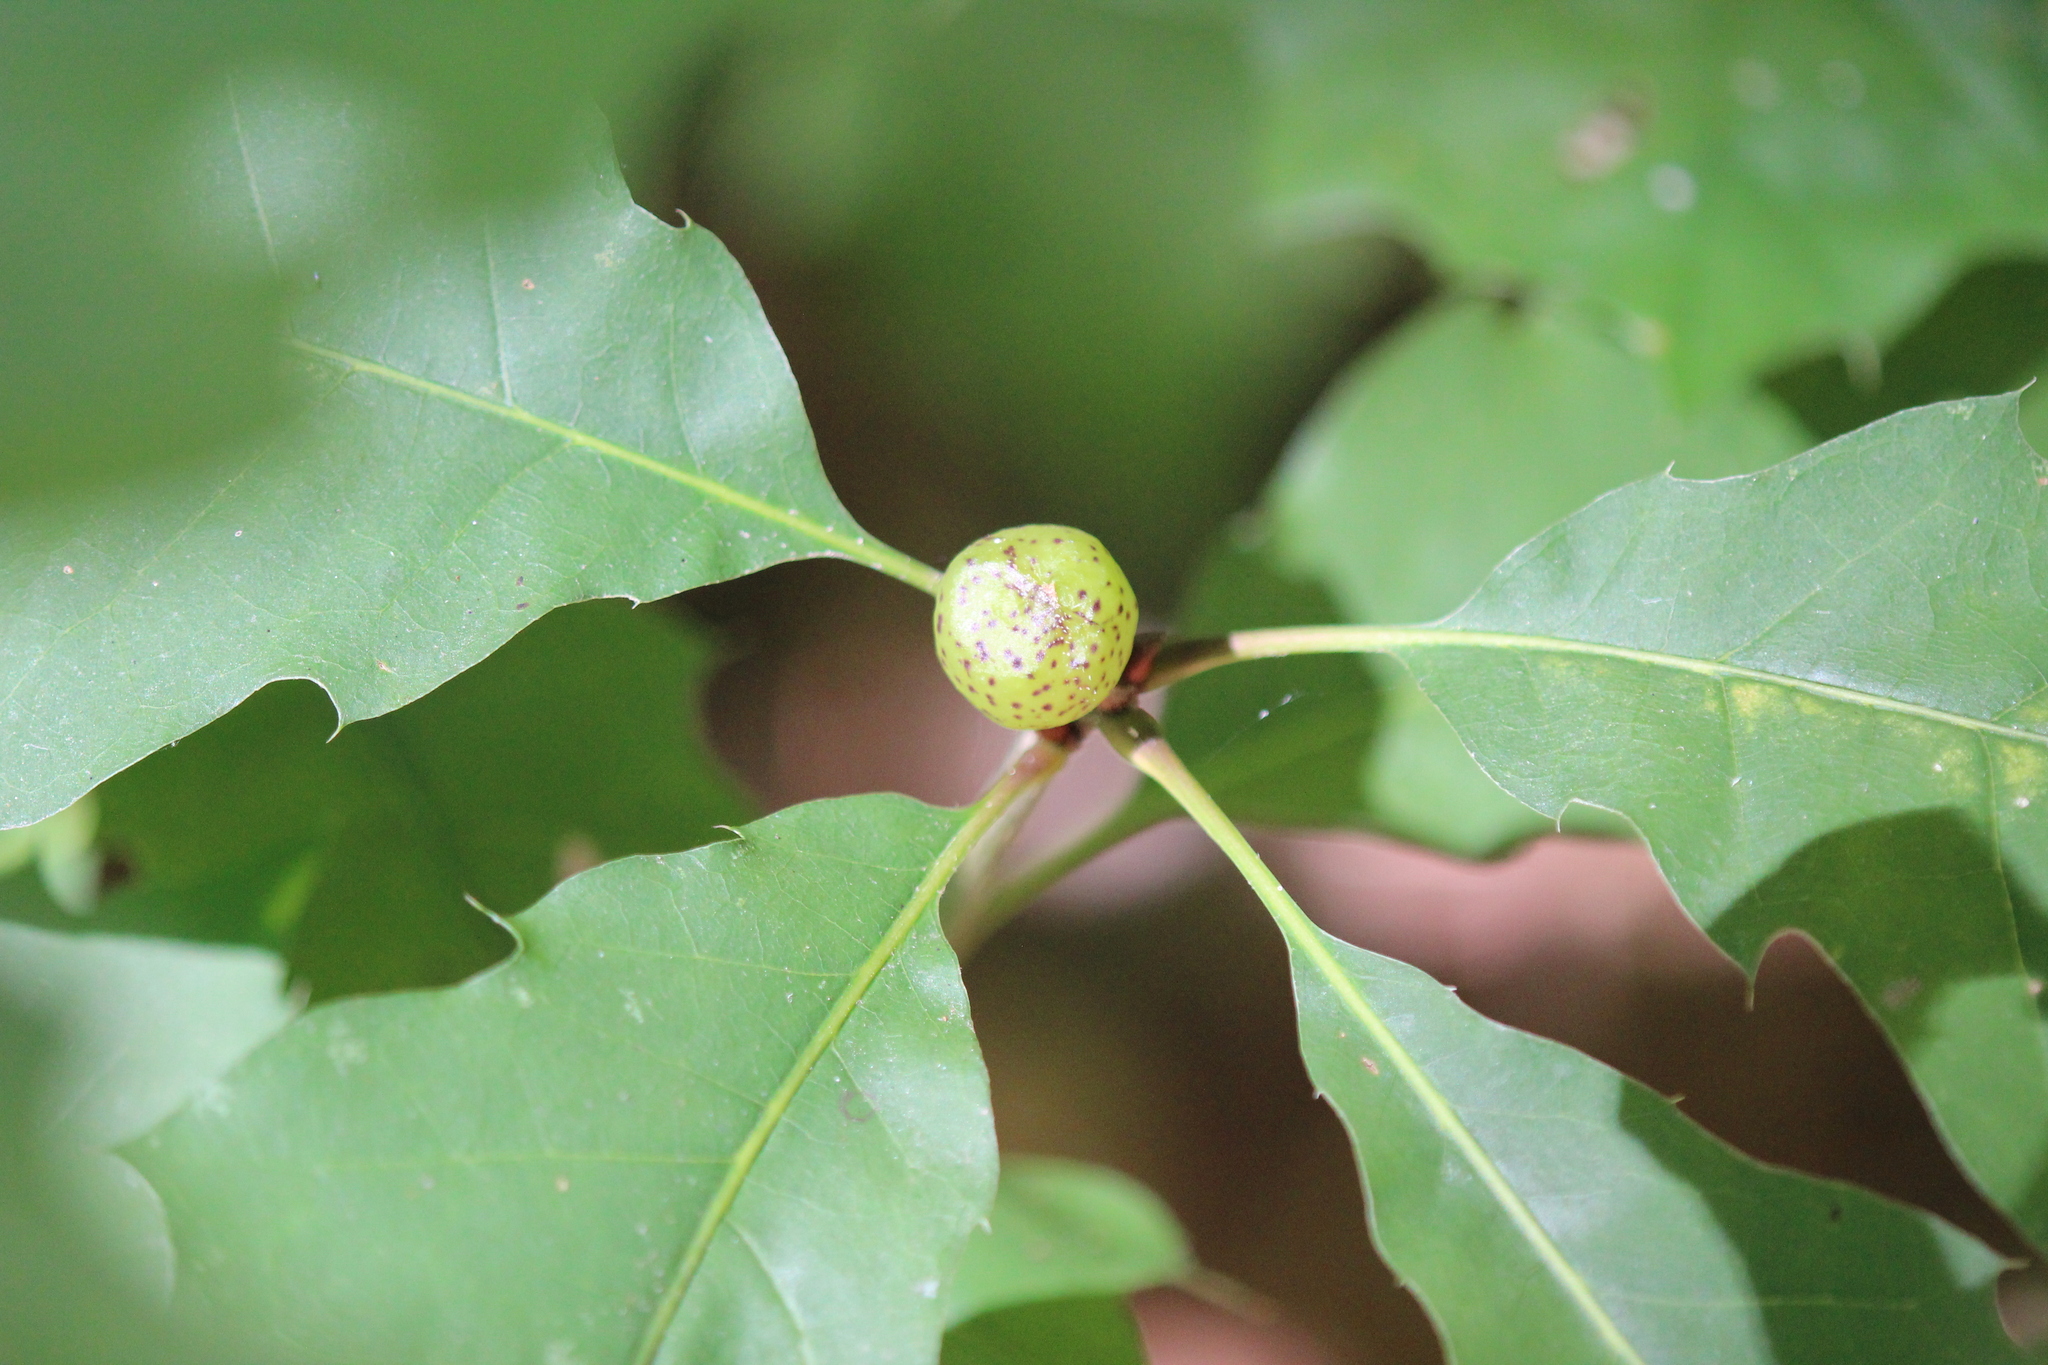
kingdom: Animalia
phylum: Arthropoda
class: Insecta
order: Hymenoptera
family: Cynipidae
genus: Amphibolips
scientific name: Amphibolips
